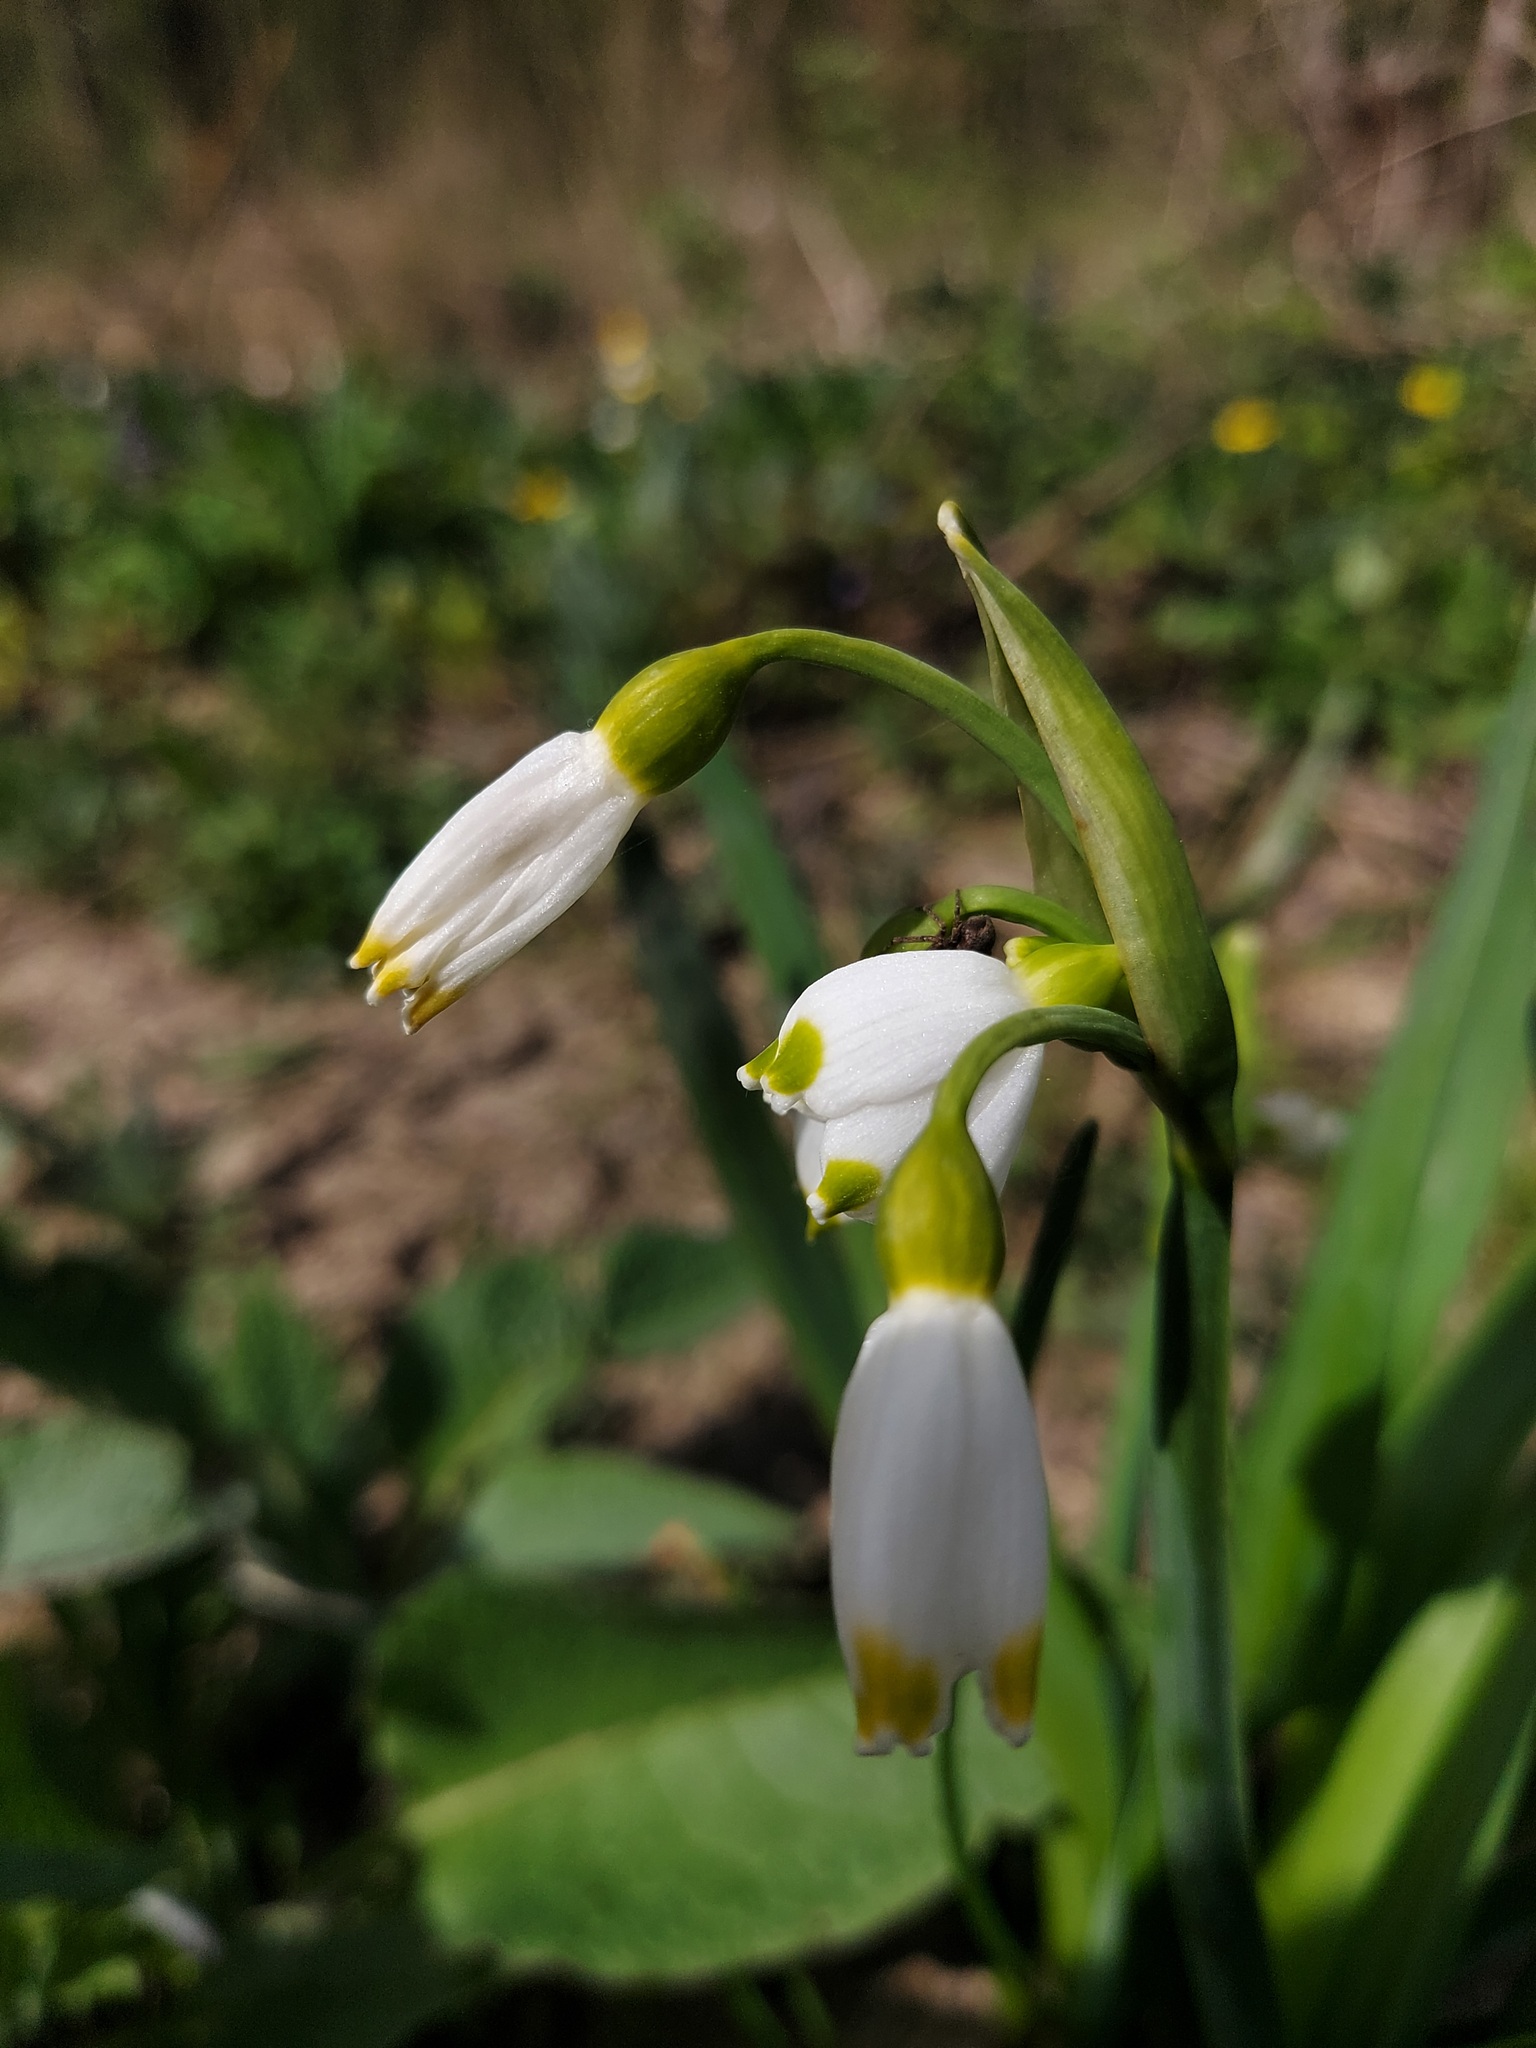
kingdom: Plantae
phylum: Tracheophyta
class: Liliopsida
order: Asparagales
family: Amaryllidaceae
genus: Leucojum
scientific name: Leucojum aestivum
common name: Summer snowflake
